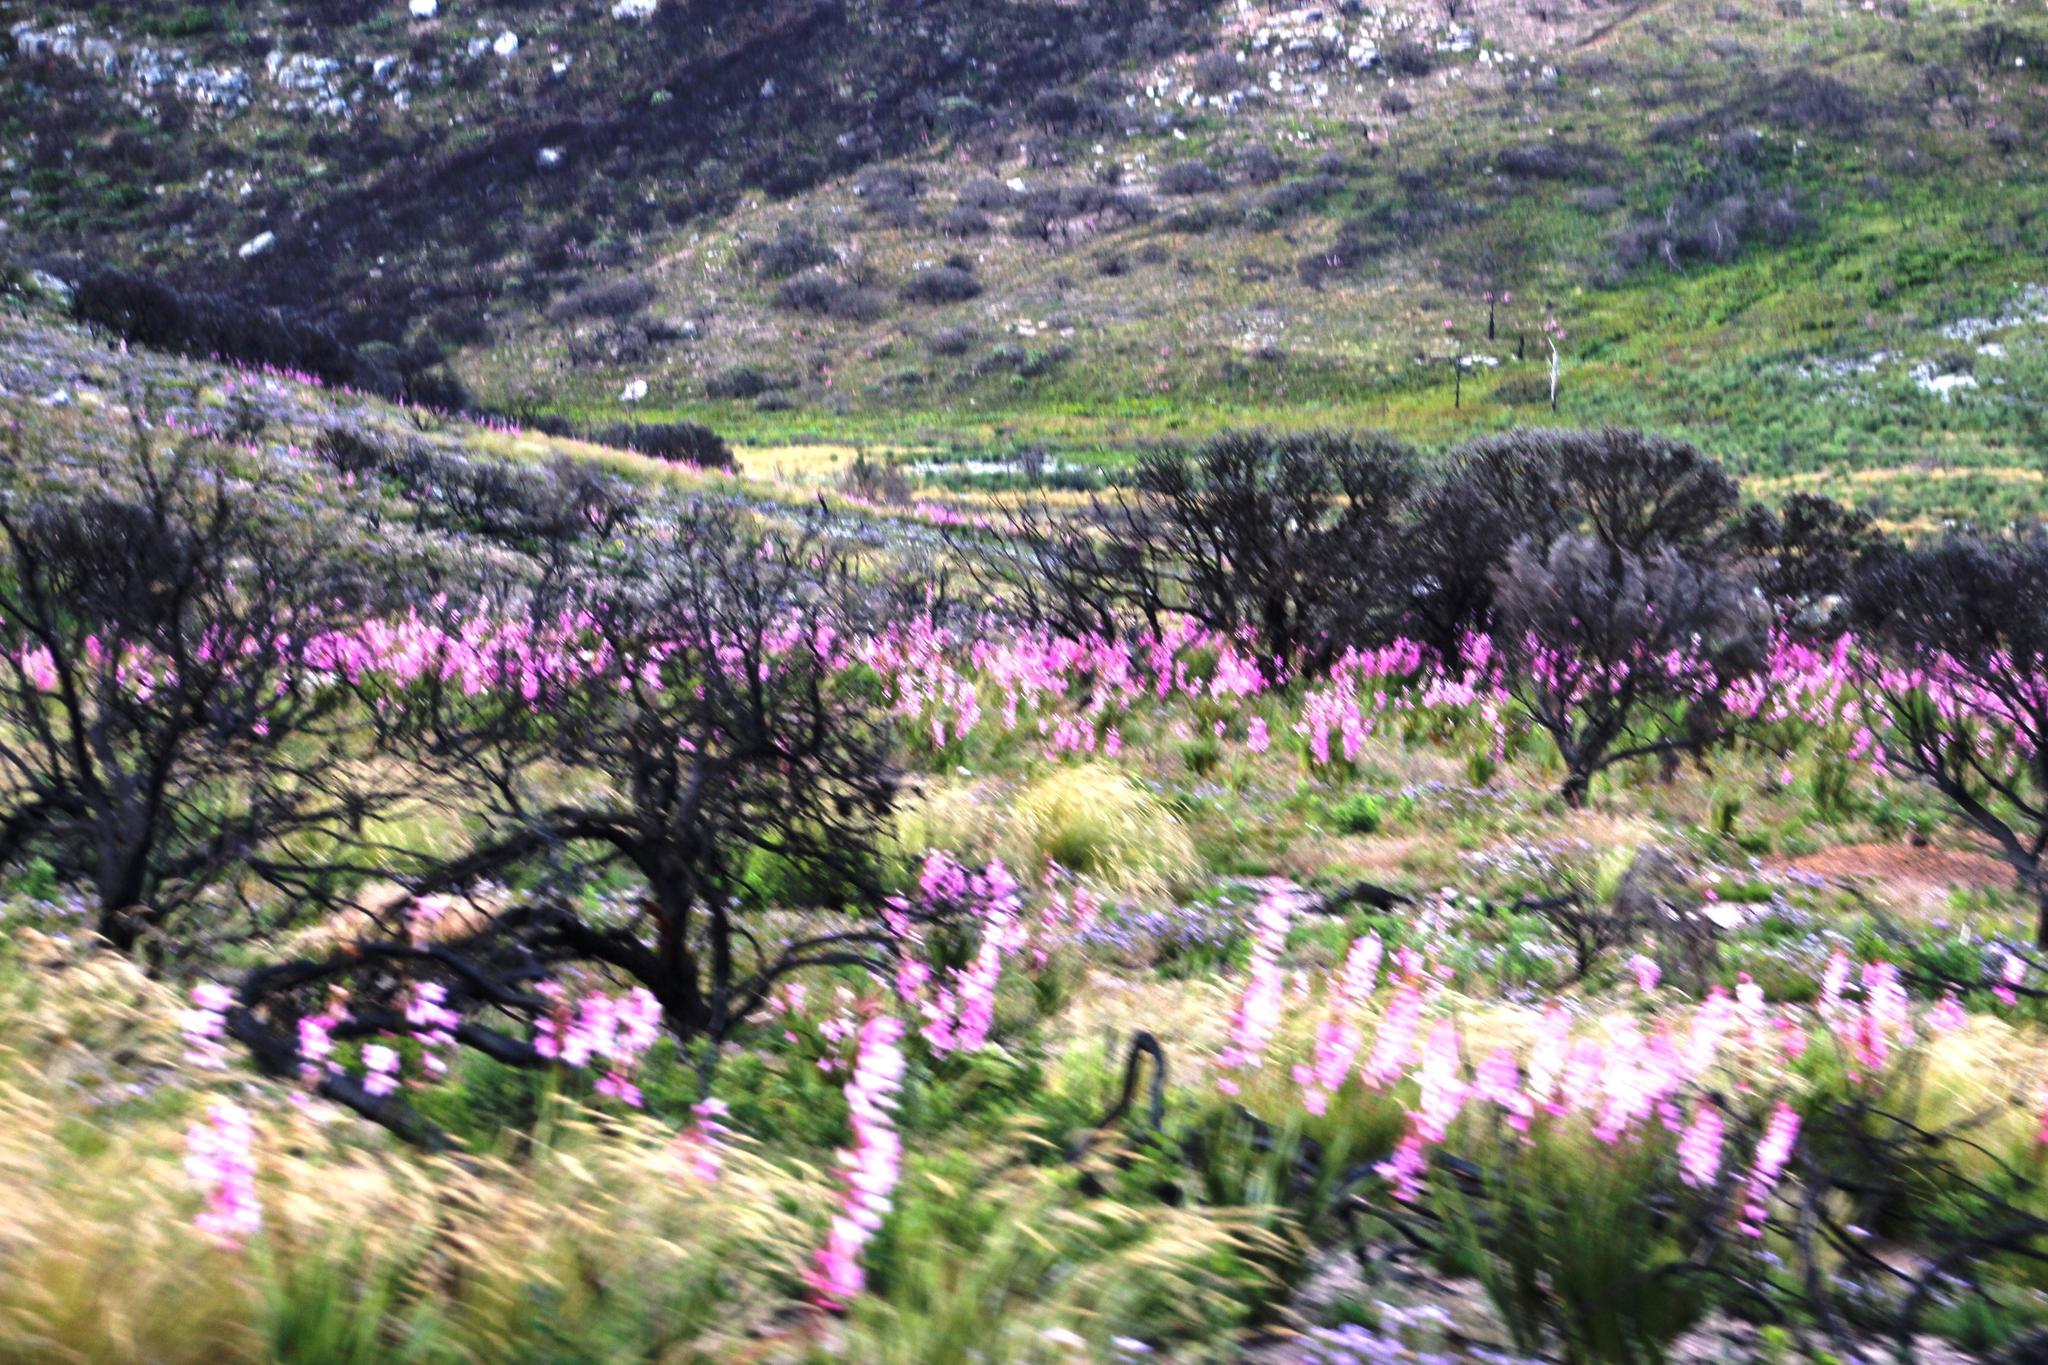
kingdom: Plantae
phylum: Tracheophyta
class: Liliopsida
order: Asparagales
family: Iridaceae
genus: Watsonia
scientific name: Watsonia borbonica
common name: Bugle-lily
